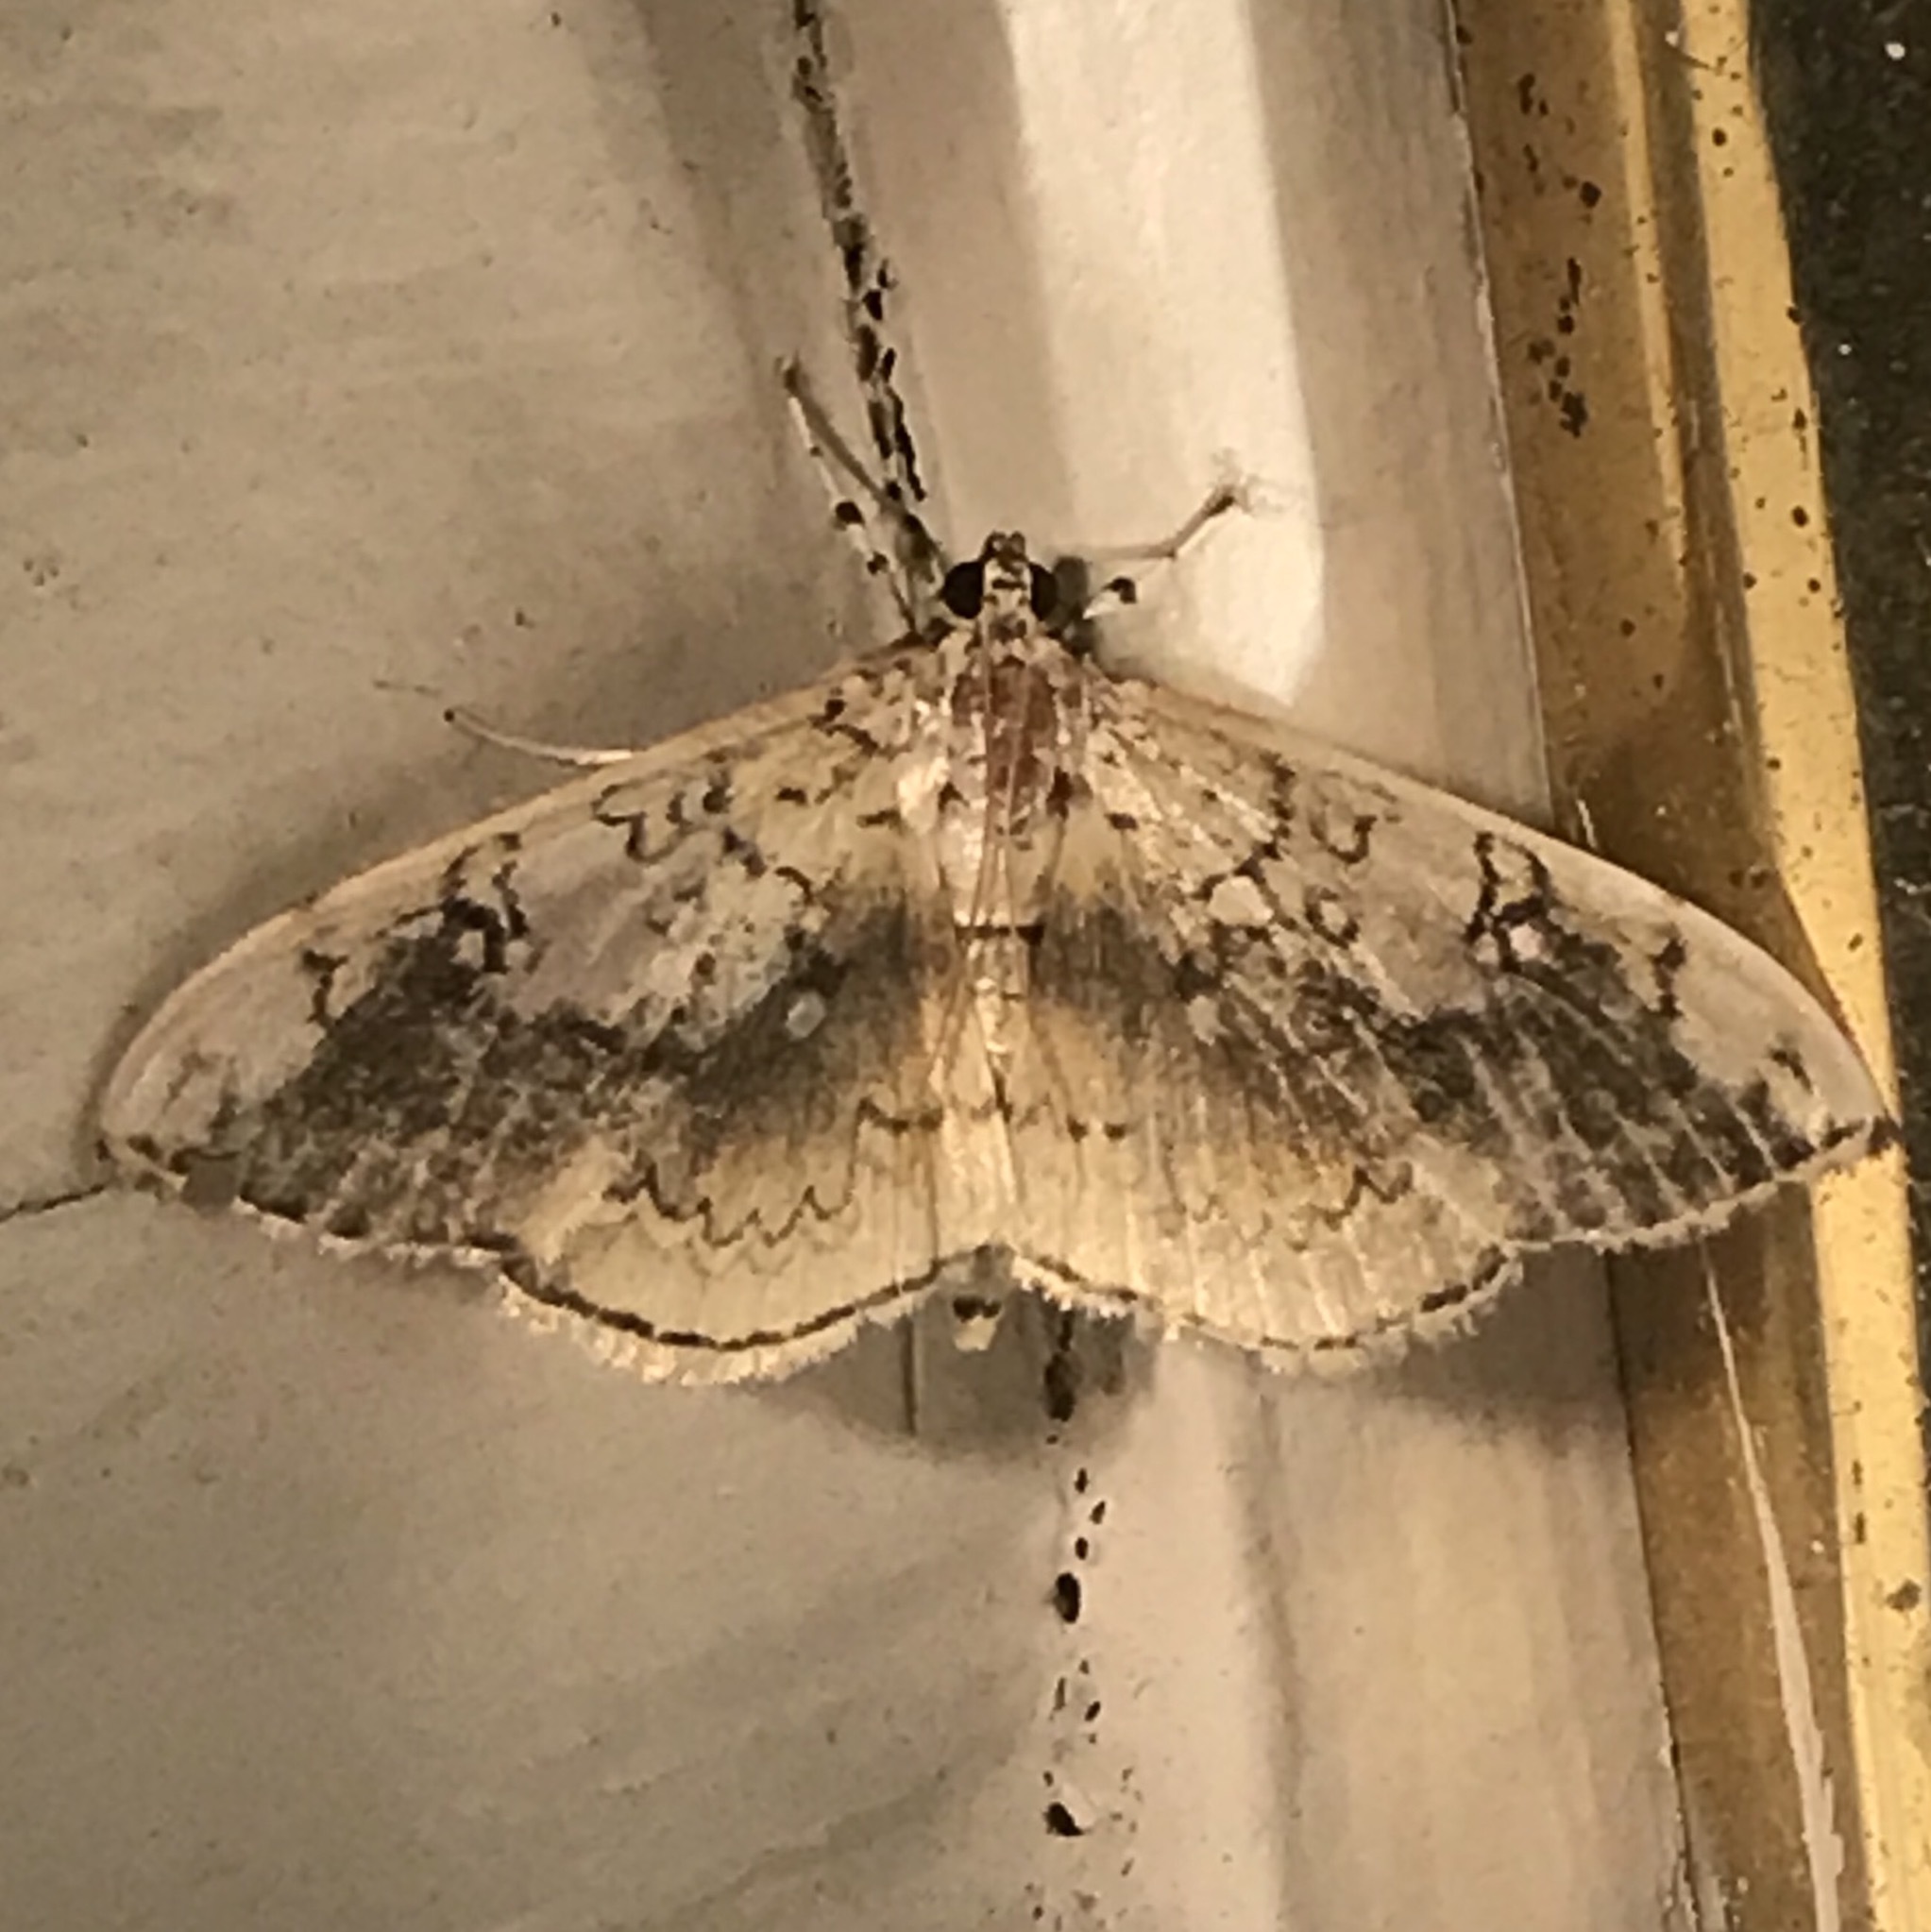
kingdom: Animalia
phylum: Arthropoda
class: Insecta
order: Lepidoptera
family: Crambidae
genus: Pantographa
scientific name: Pantographa limata
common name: Basswood leafroller moth
